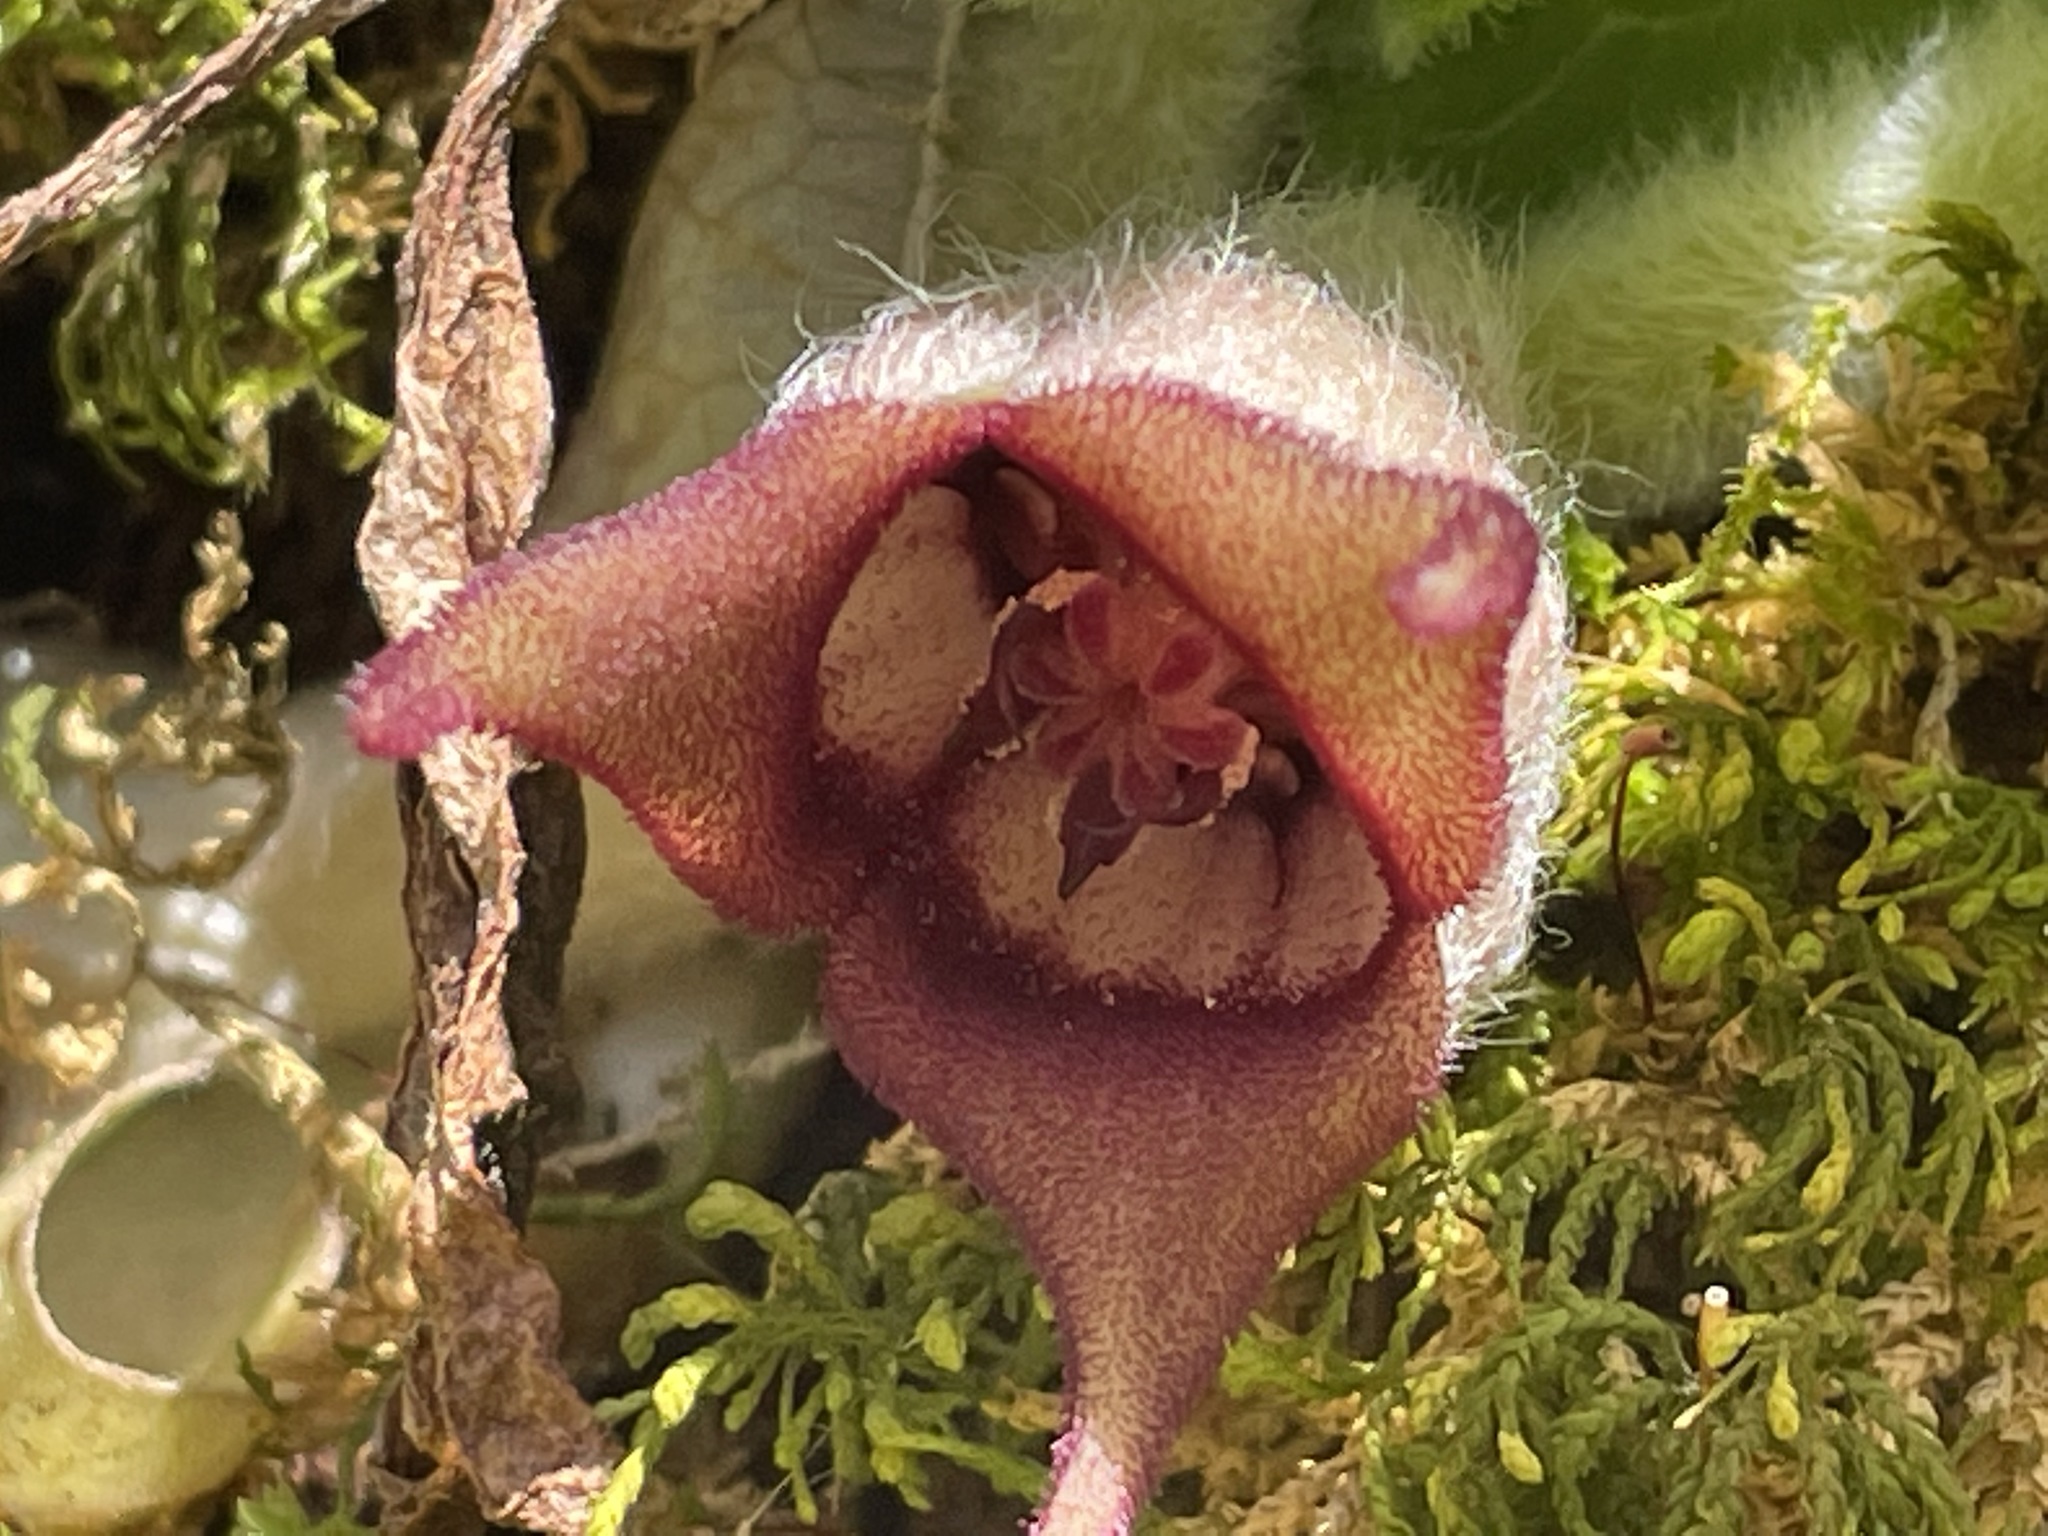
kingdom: Plantae
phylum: Tracheophyta
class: Magnoliopsida
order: Piperales
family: Aristolochiaceae
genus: Asarum
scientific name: Asarum canadense
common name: Wild ginger
